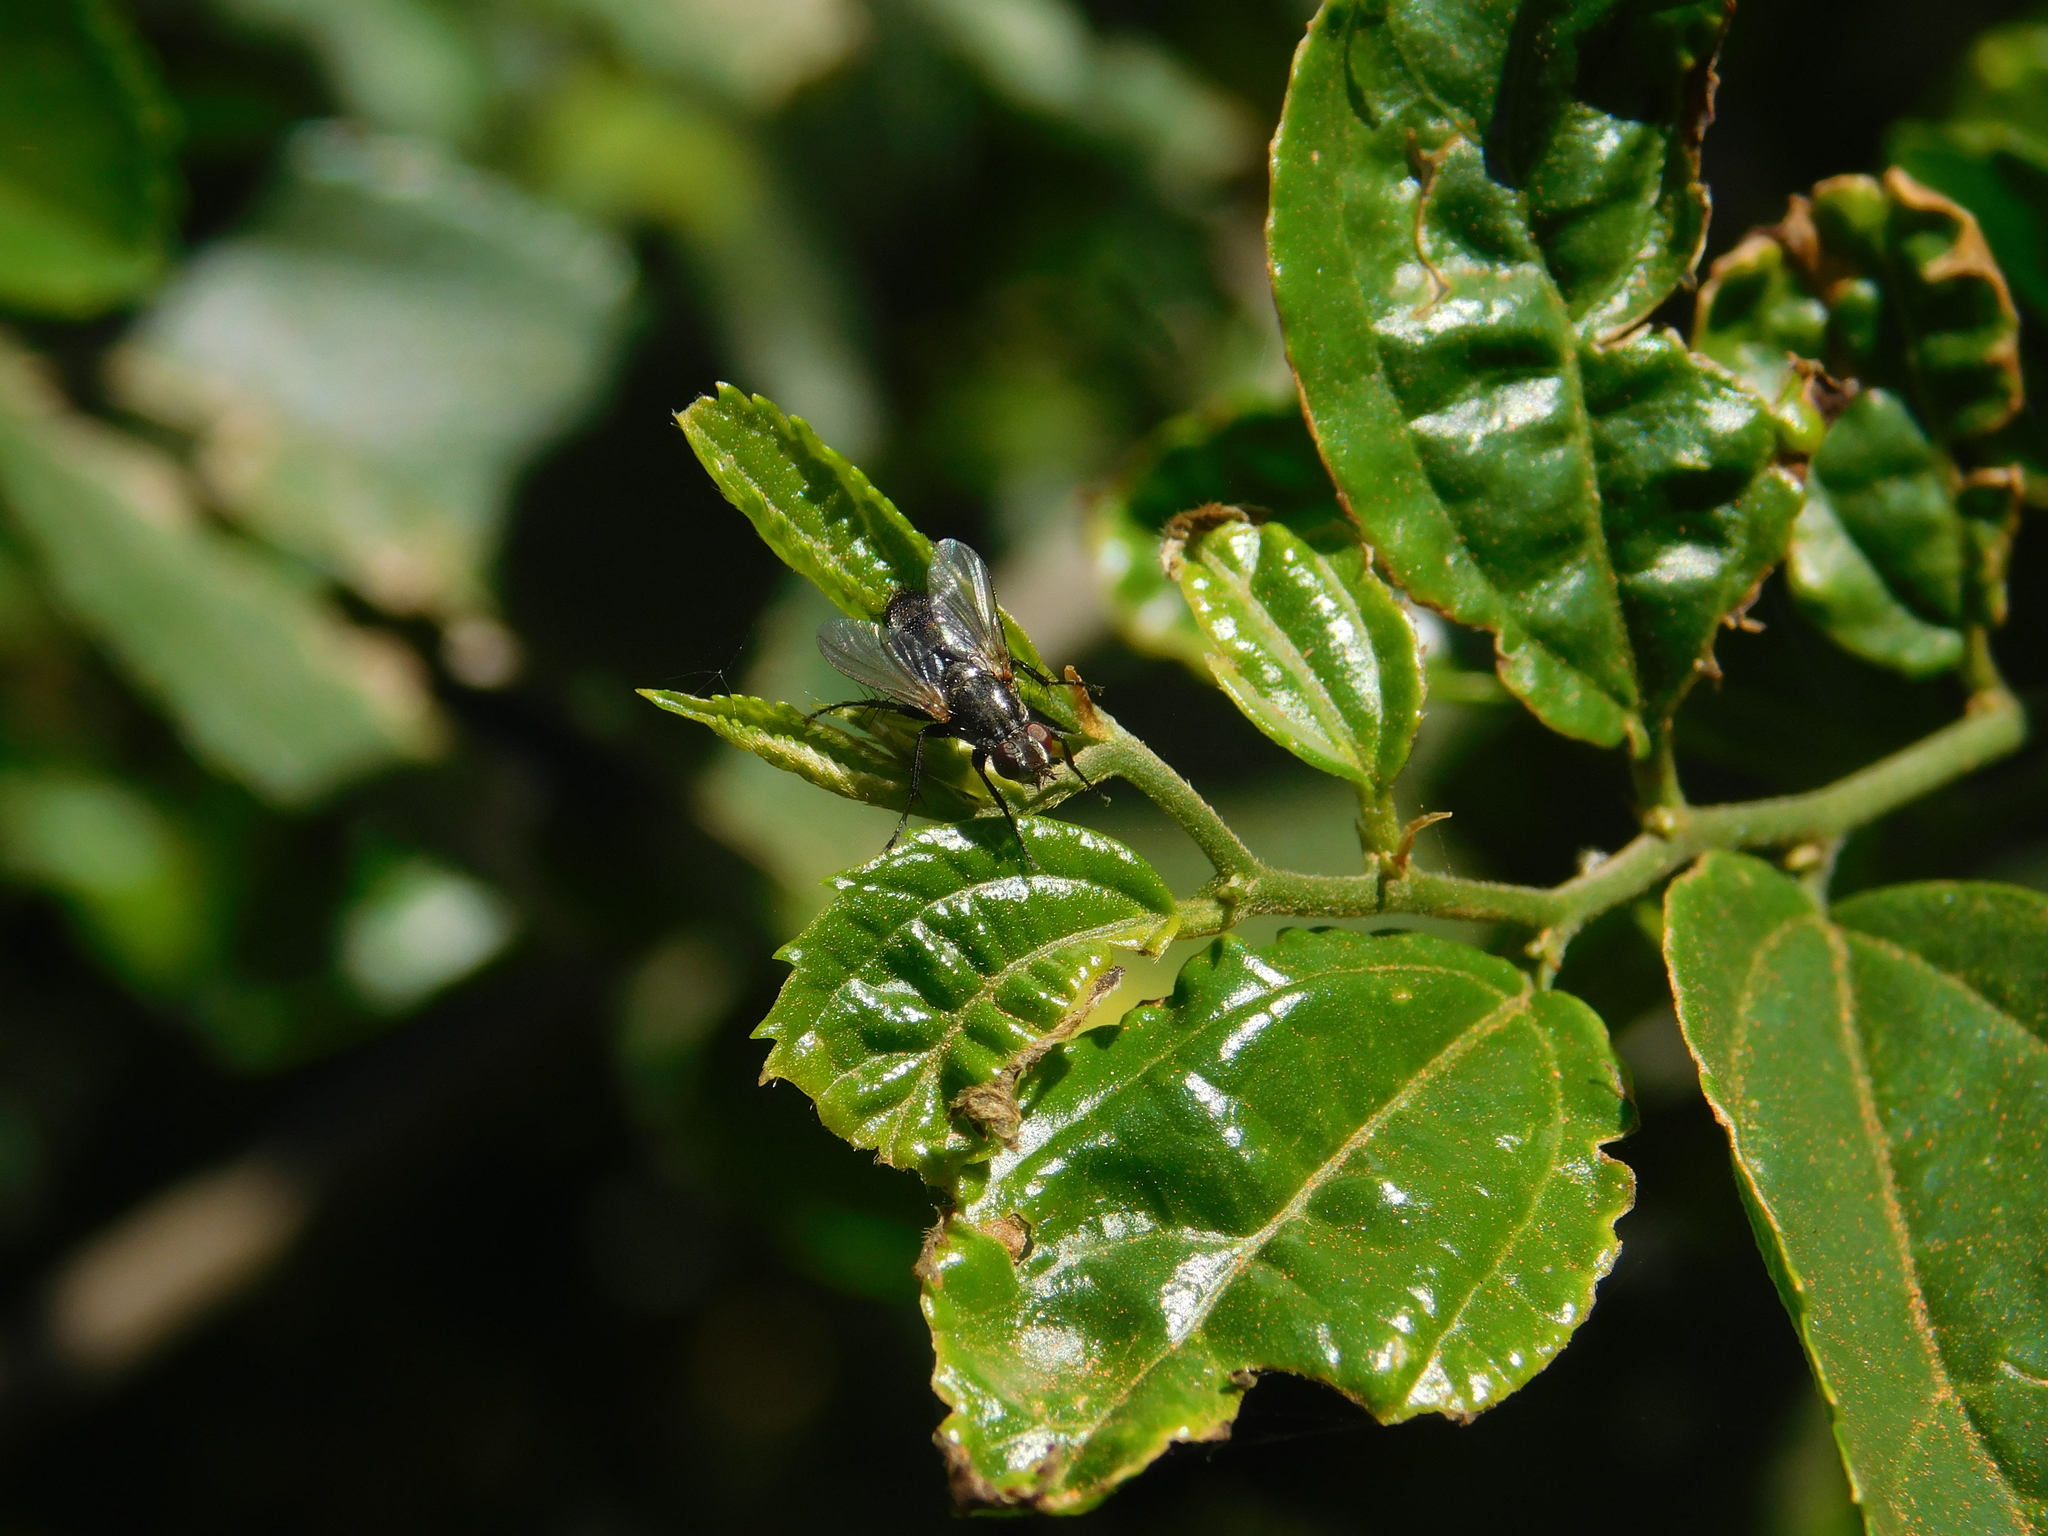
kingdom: Animalia
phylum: Arthropoda
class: Insecta
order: Diptera
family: Calliphoridae
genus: Stevenia
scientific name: Stevenia deceptoria
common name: Grizzled woodlouse-fly
